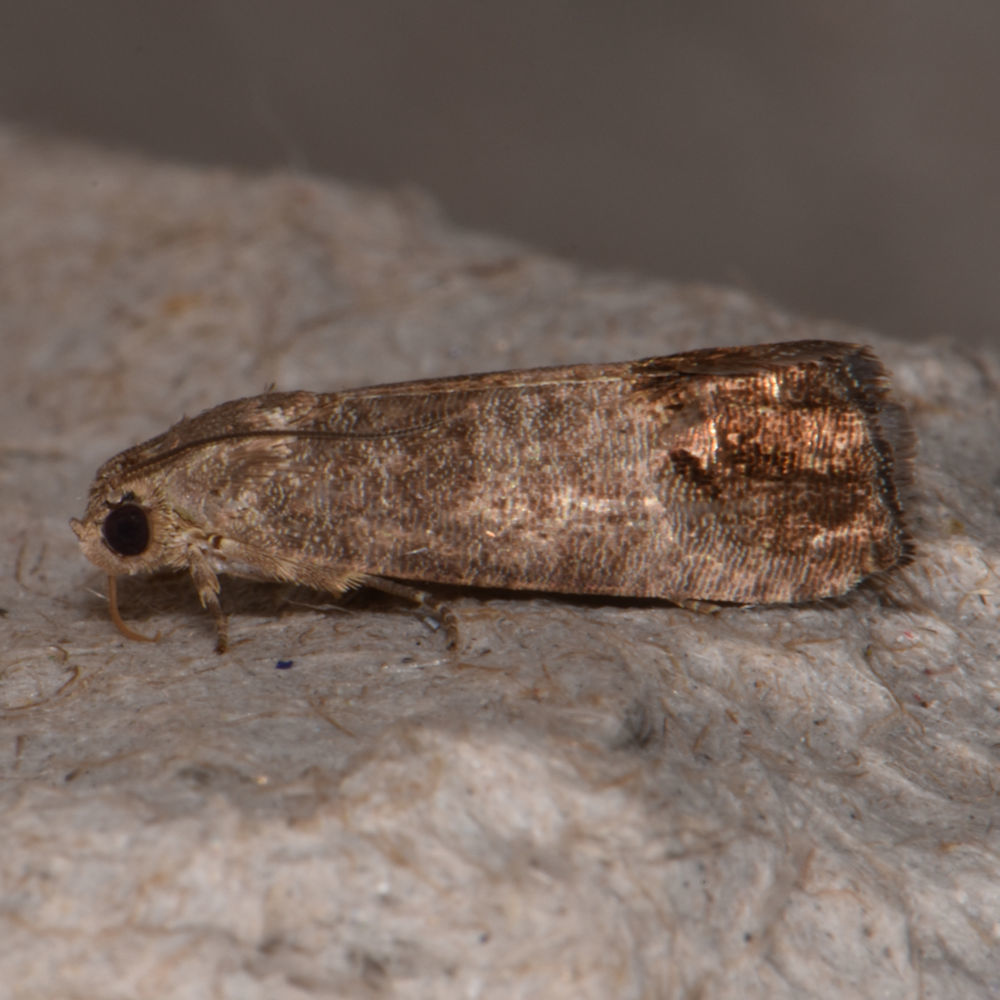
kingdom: Animalia
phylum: Arthropoda
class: Insecta
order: Lepidoptera
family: Tortricidae
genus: Cydia
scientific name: Cydia pomonella
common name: Codling moth
